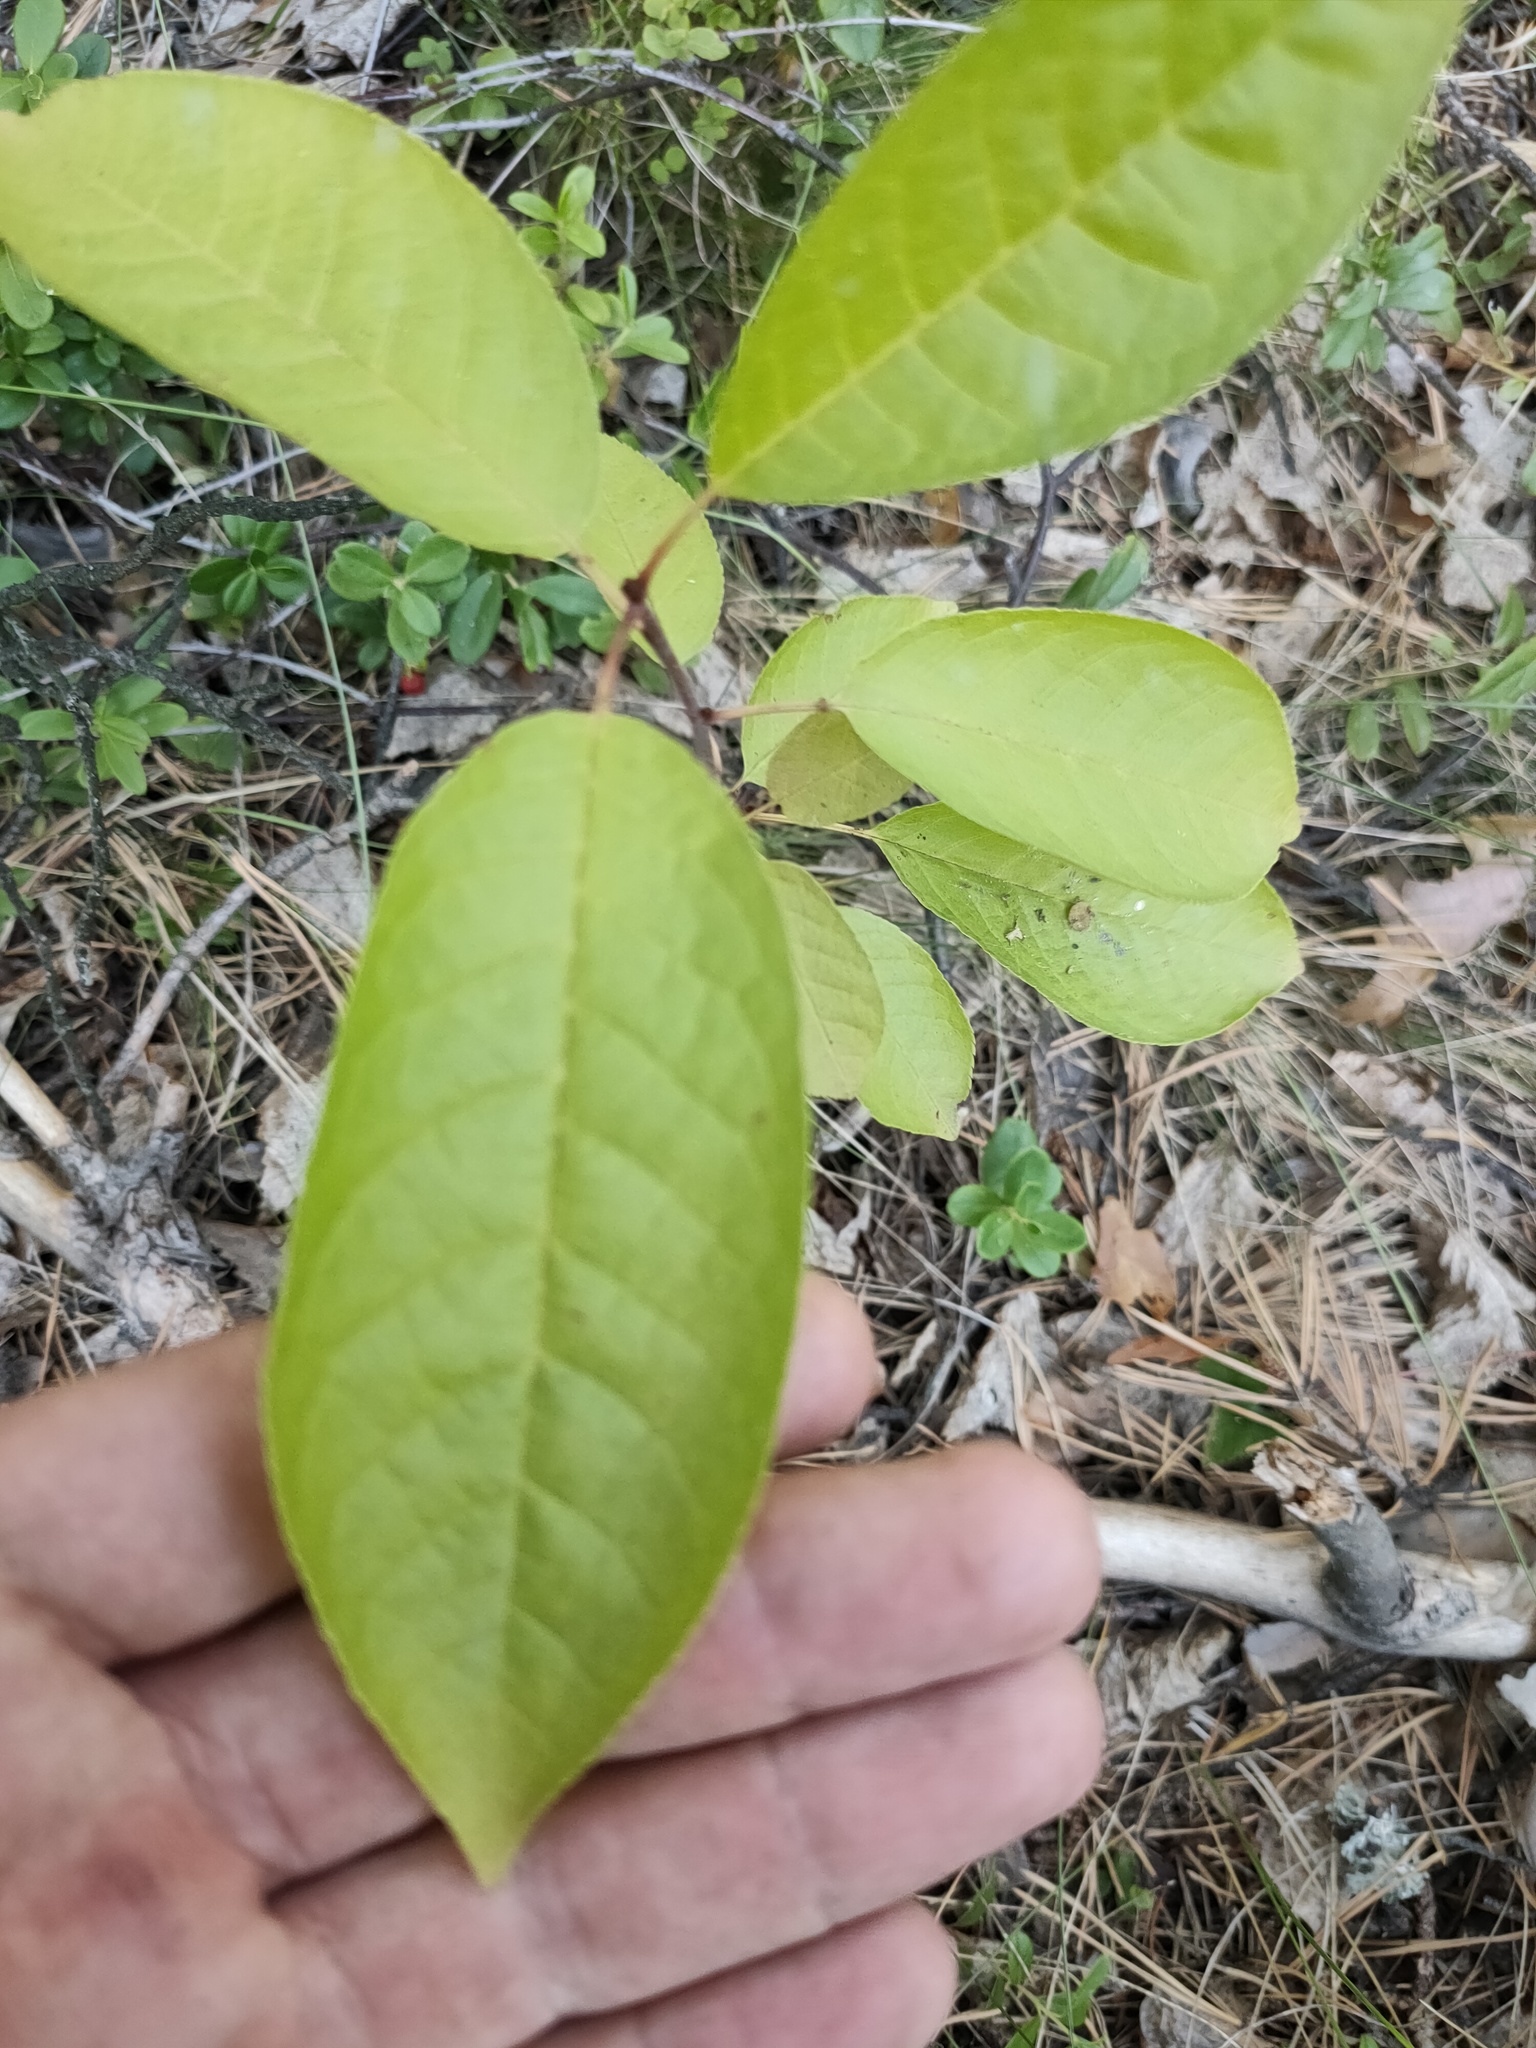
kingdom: Plantae
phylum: Tracheophyta
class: Magnoliopsida
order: Rosales
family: Rosaceae
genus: Prunus
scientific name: Prunus padus
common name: Bird cherry
